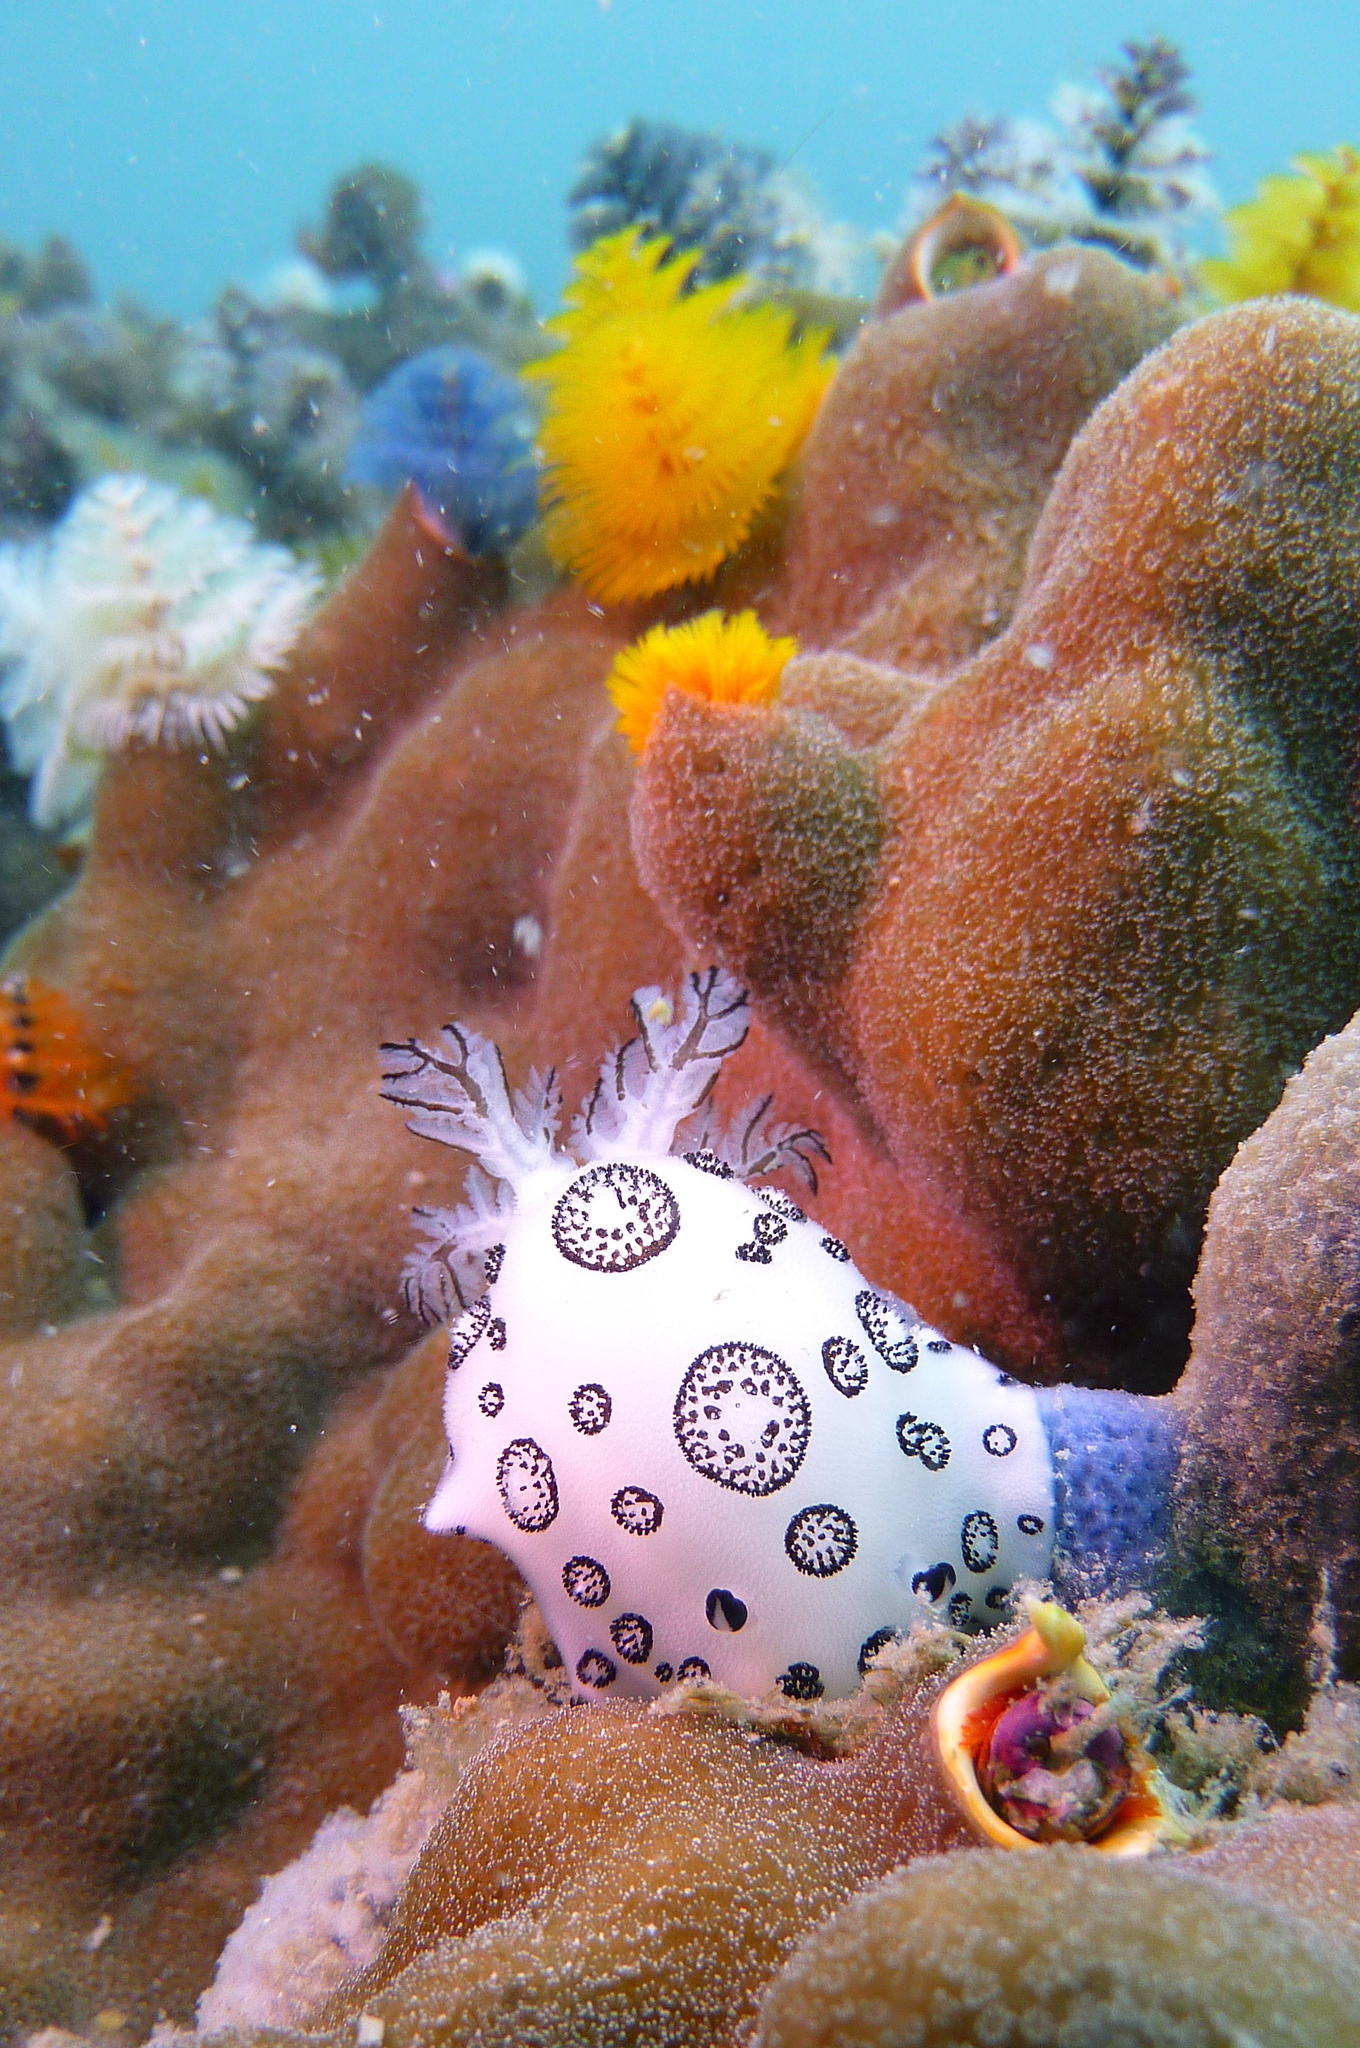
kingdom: Animalia
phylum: Mollusca
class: Gastropoda
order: Nudibranchia
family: Discodorididae
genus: Jorunna
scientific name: Jorunna funebris
